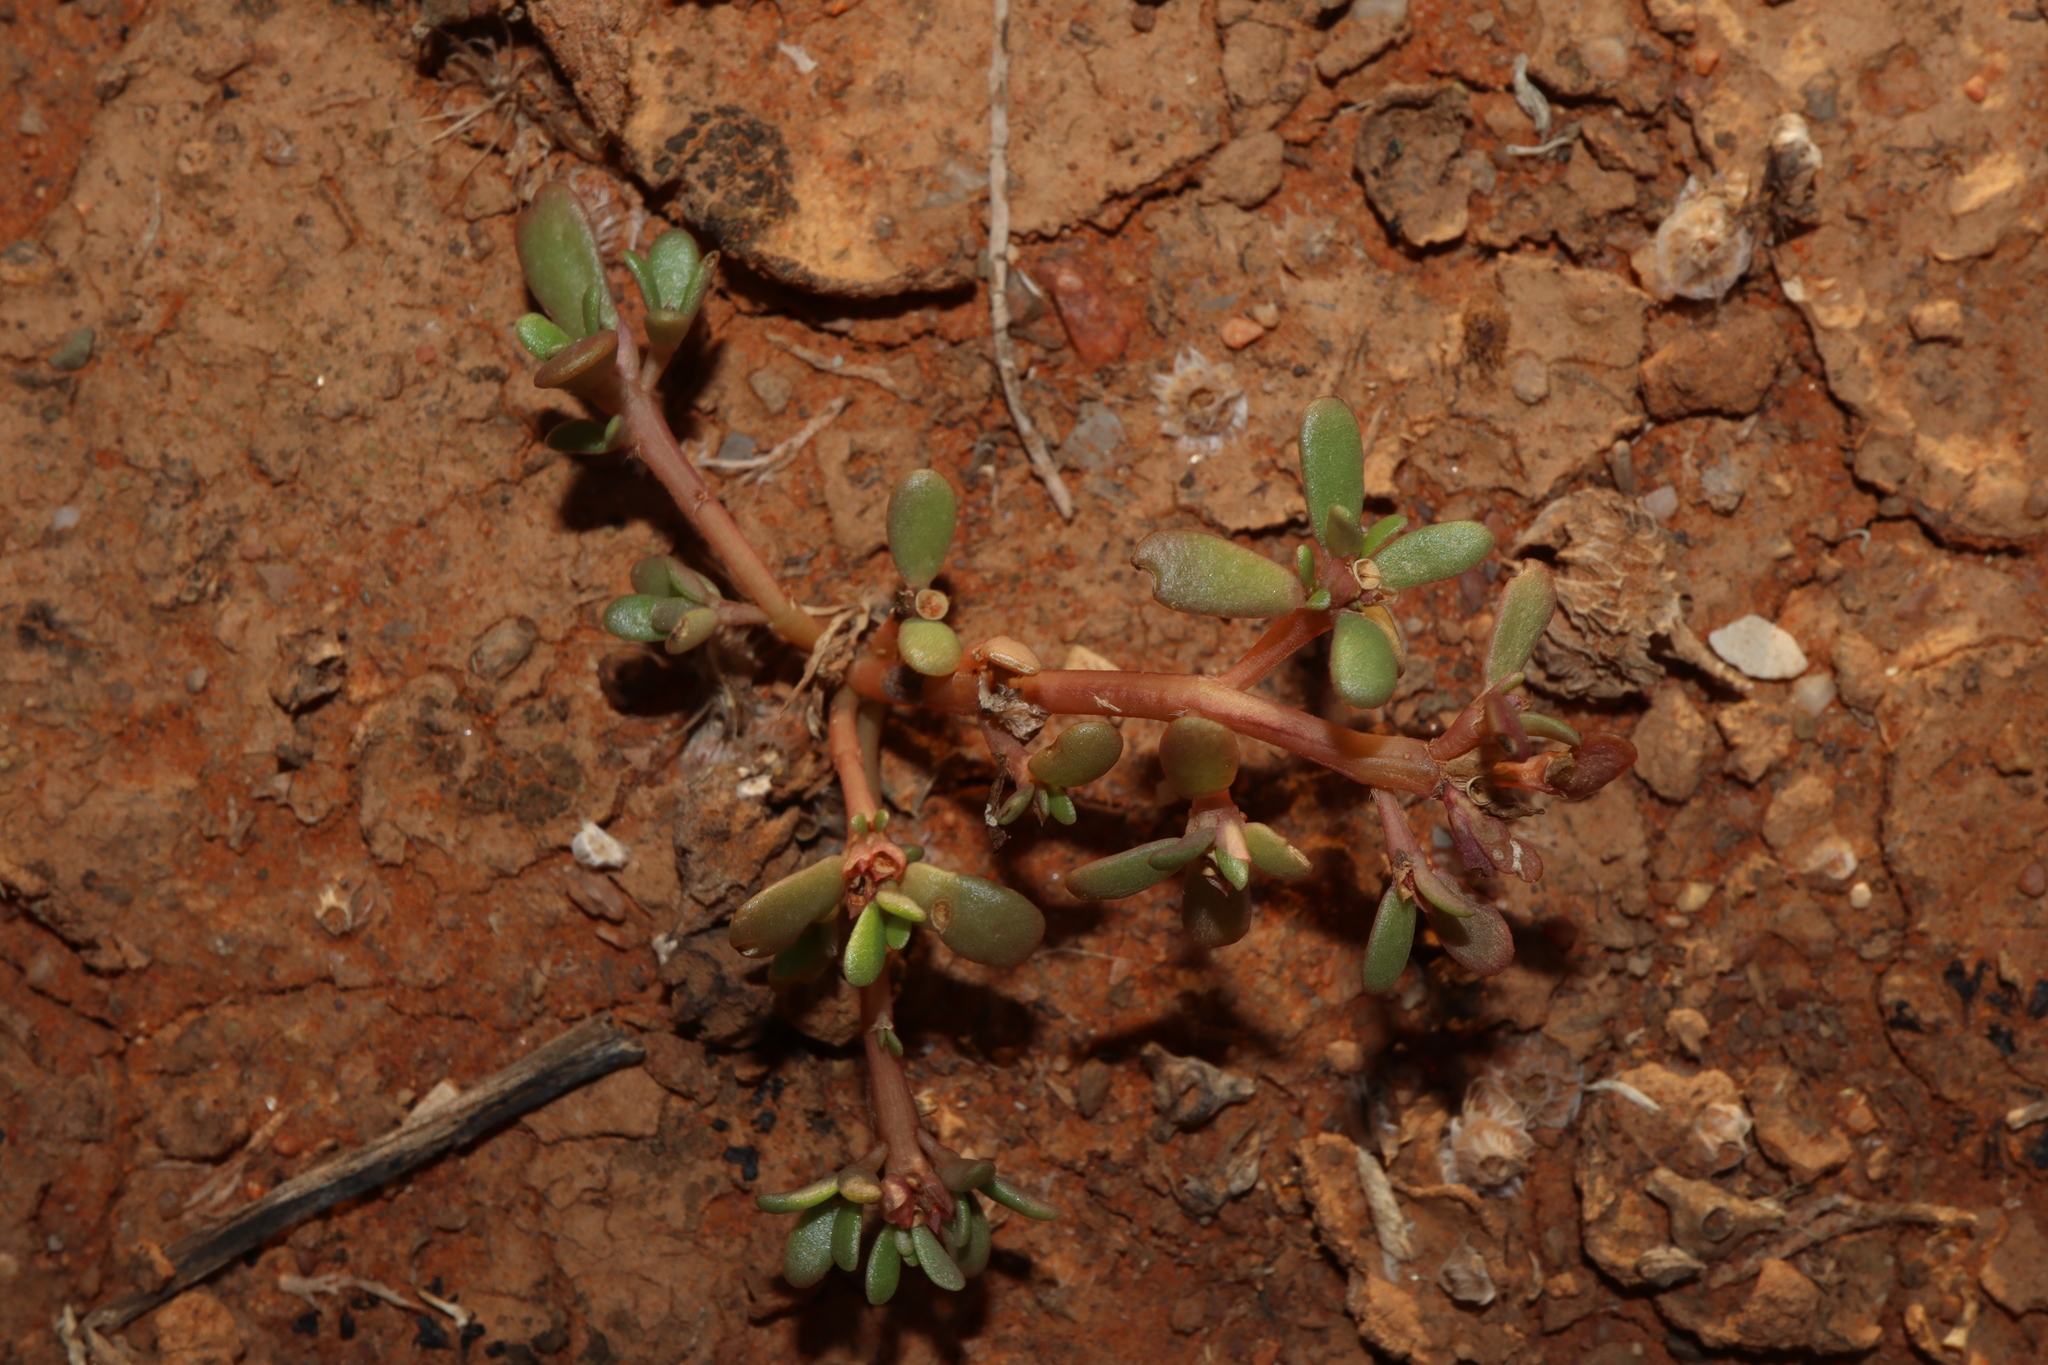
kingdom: Plantae
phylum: Tracheophyta
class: Magnoliopsida
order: Caryophyllales
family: Portulacaceae
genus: Portulaca
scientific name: Portulaca oleracea
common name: Common purslane
